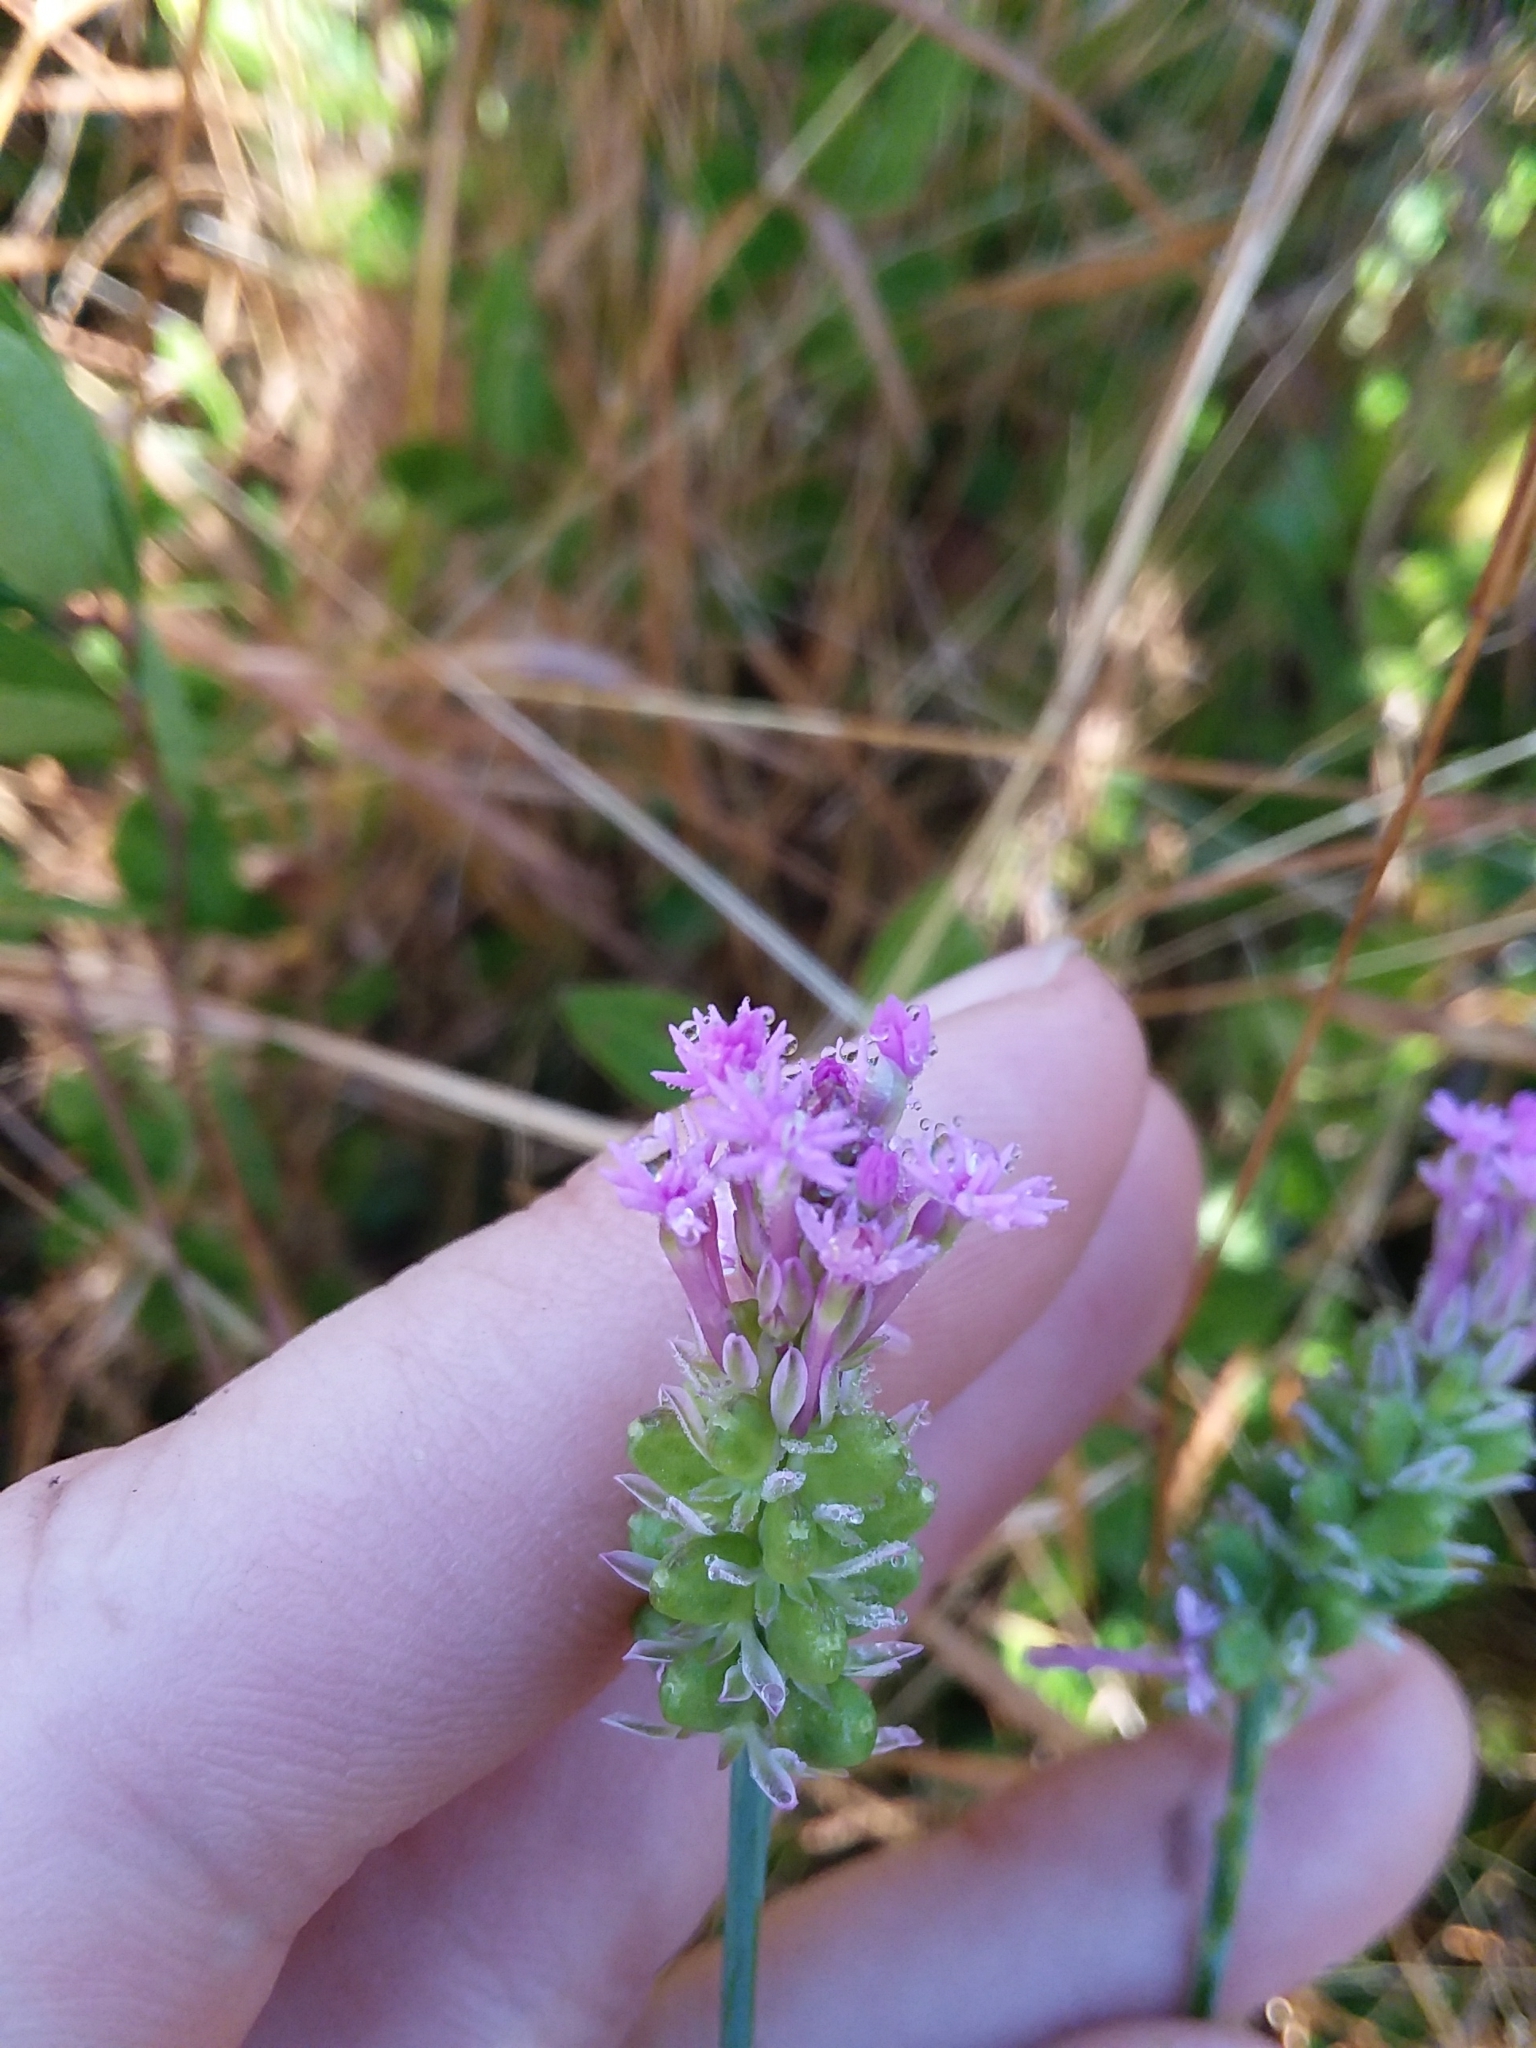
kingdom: Plantae
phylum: Tracheophyta
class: Magnoliopsida
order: Fabales
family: Polygalaceae
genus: Polygala
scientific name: Polygala incarnata
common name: Pink milkwort
